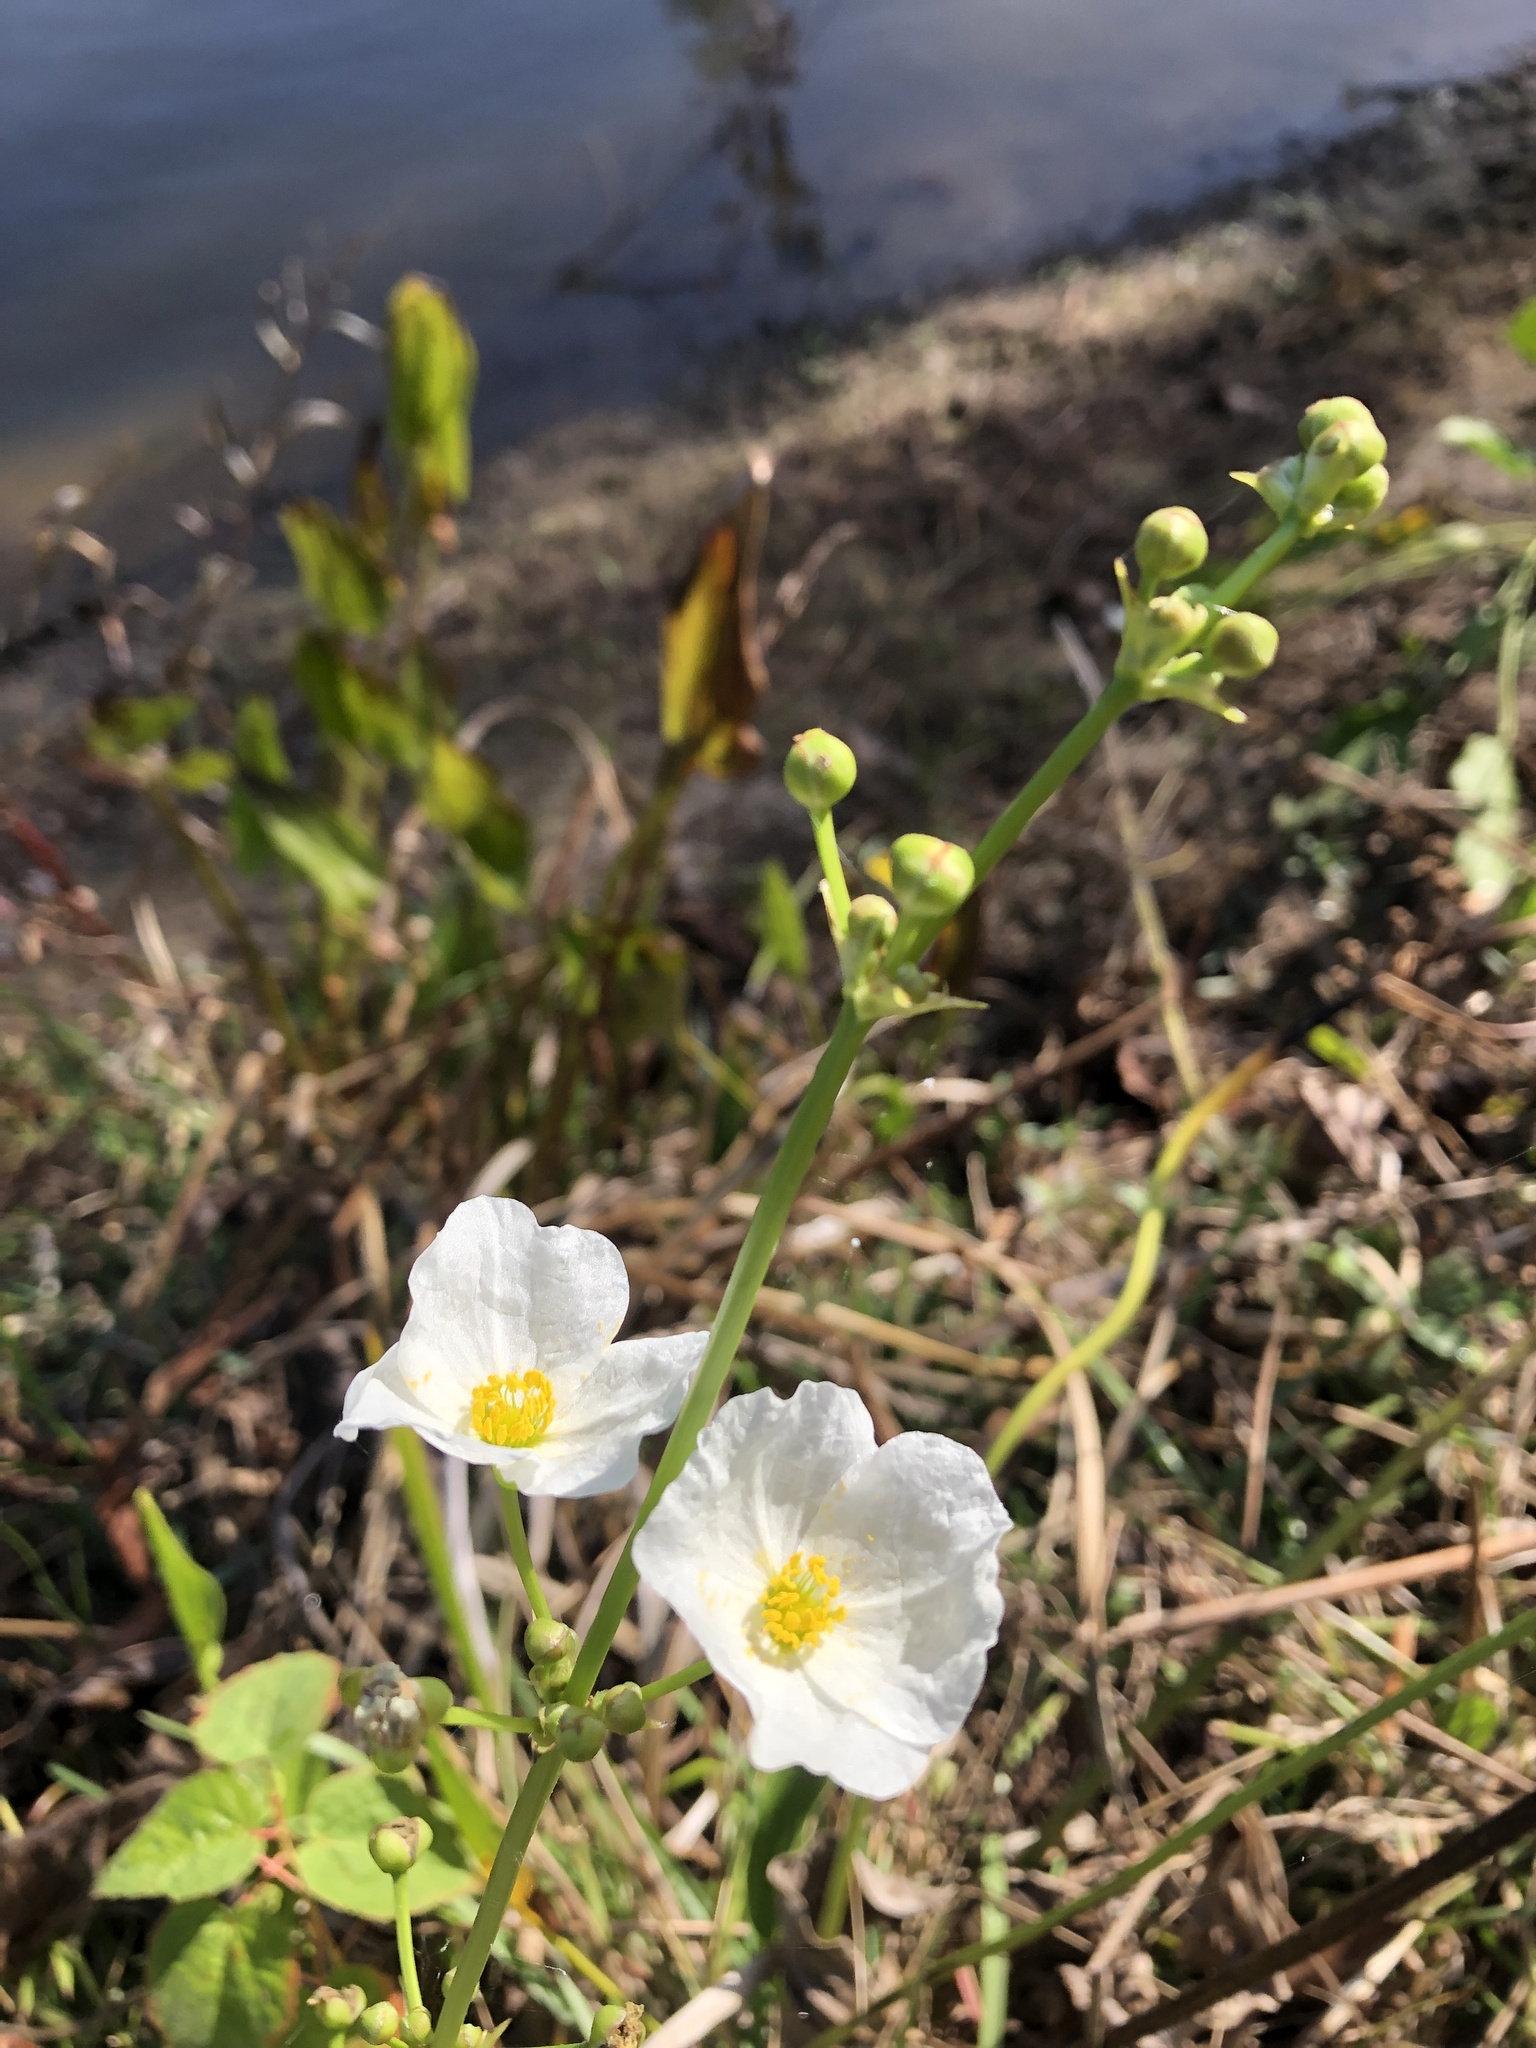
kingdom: Plantae
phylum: Tracheophyta
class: Liliopsida
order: Alismatales
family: Alismataceae
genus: Aquarius
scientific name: Aquarius cordifolius
